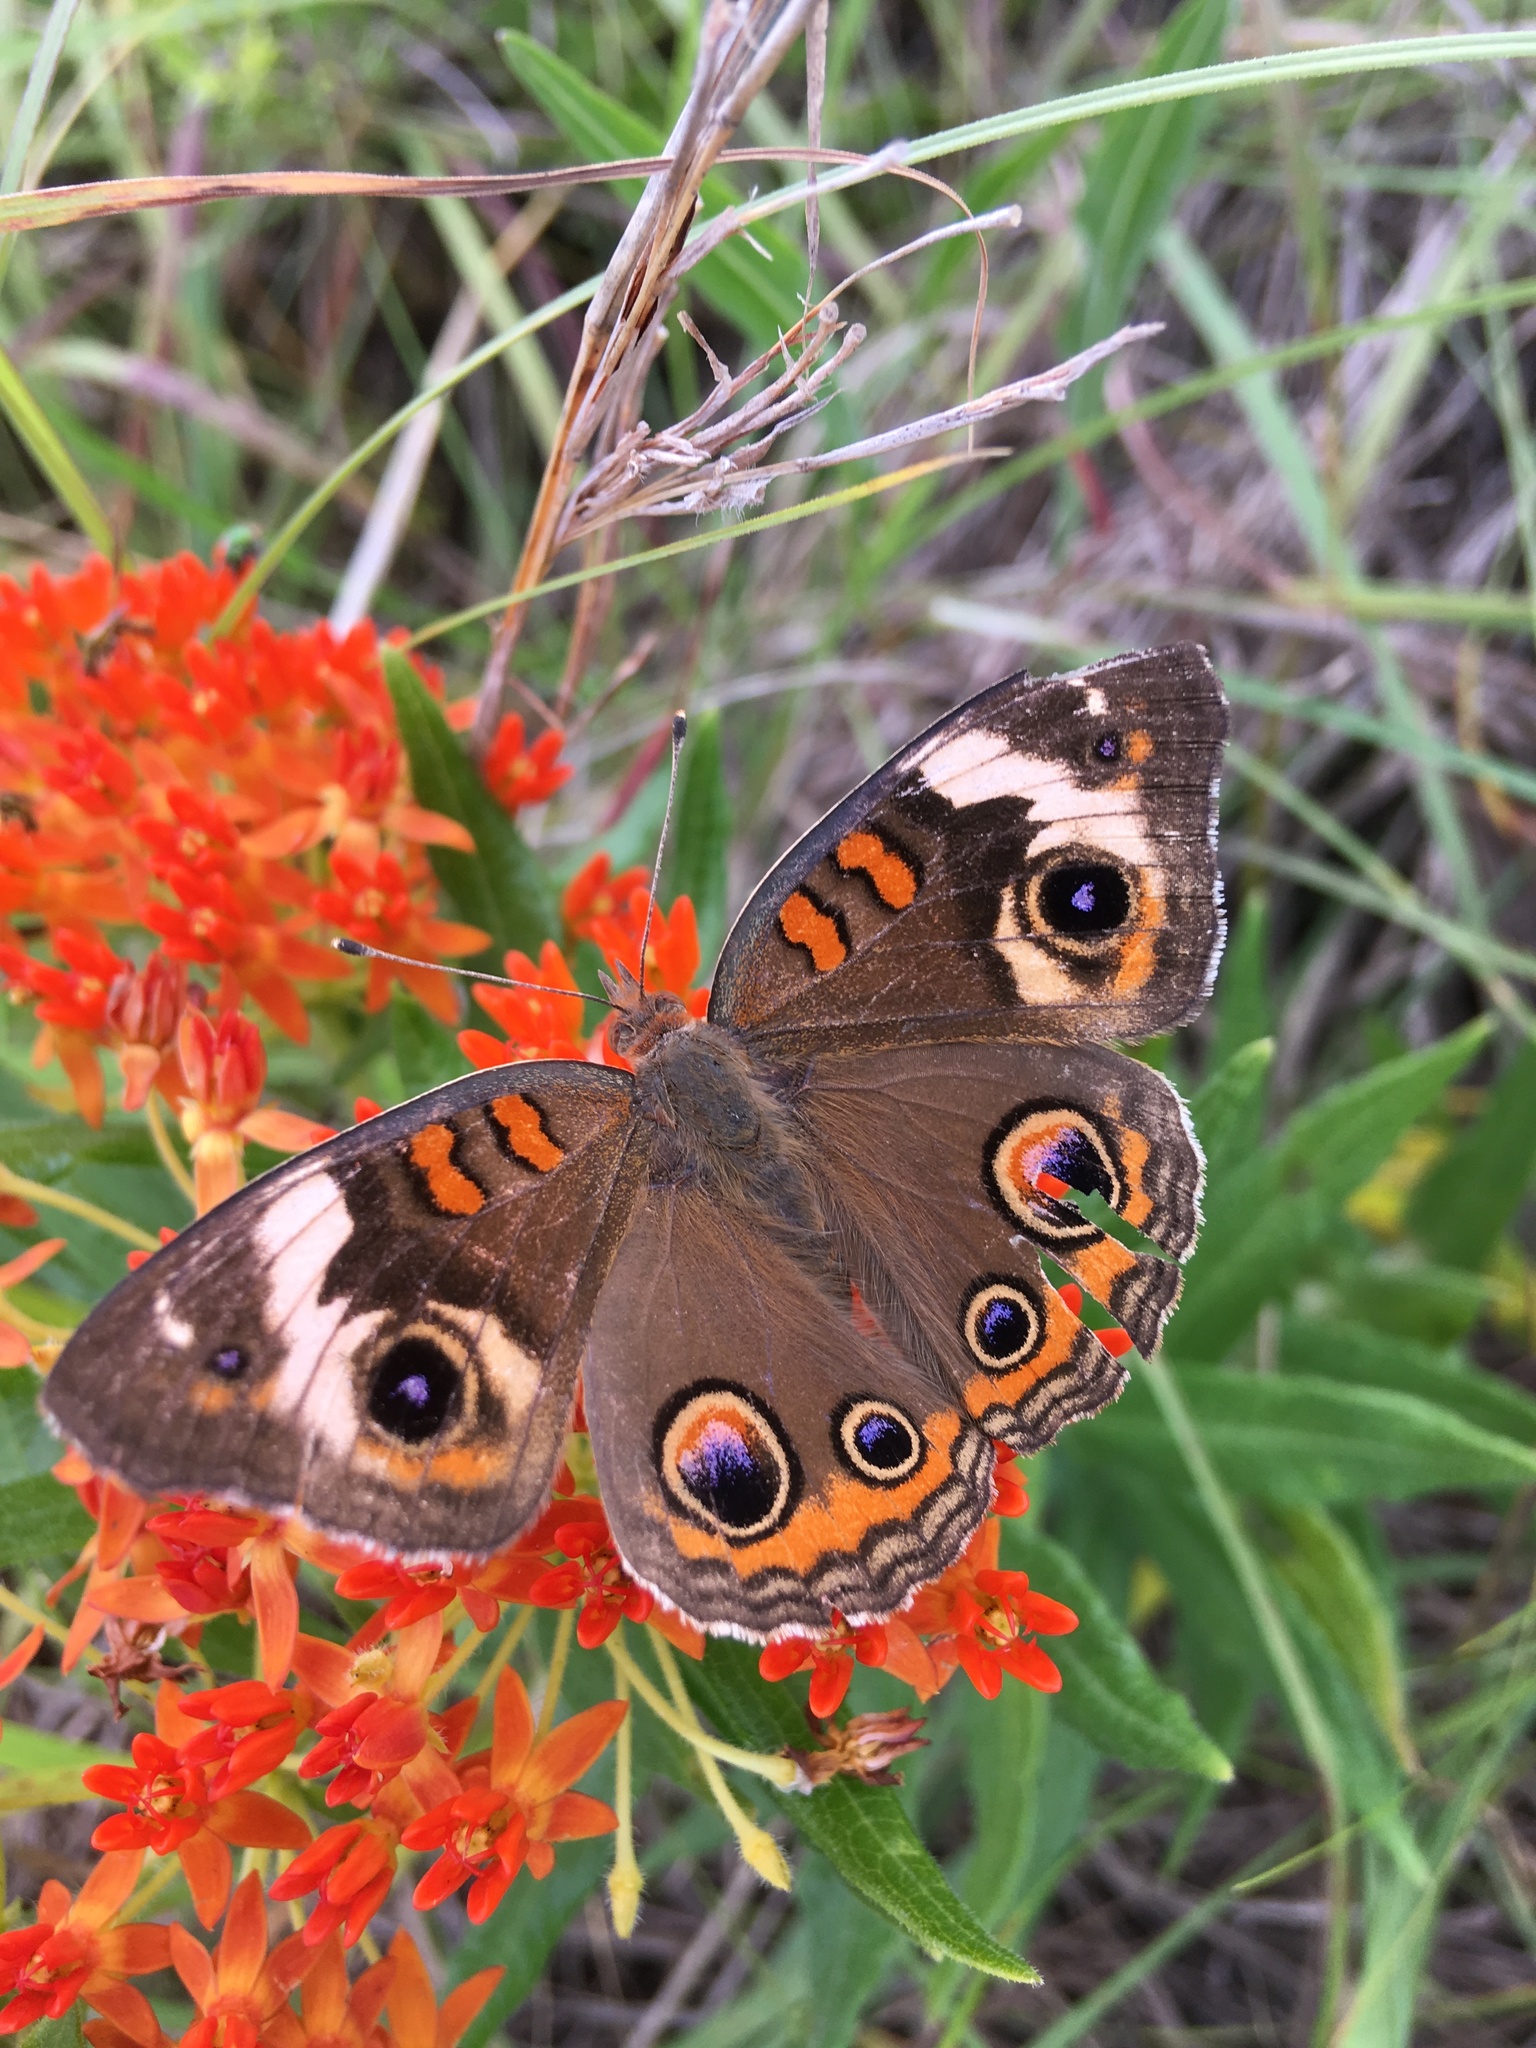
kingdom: Animalia
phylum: Arthropoda
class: Insecta
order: Lepidoptera
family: Nymphalidae
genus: Junonia
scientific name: Junonia coenia
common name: Common buckeye
